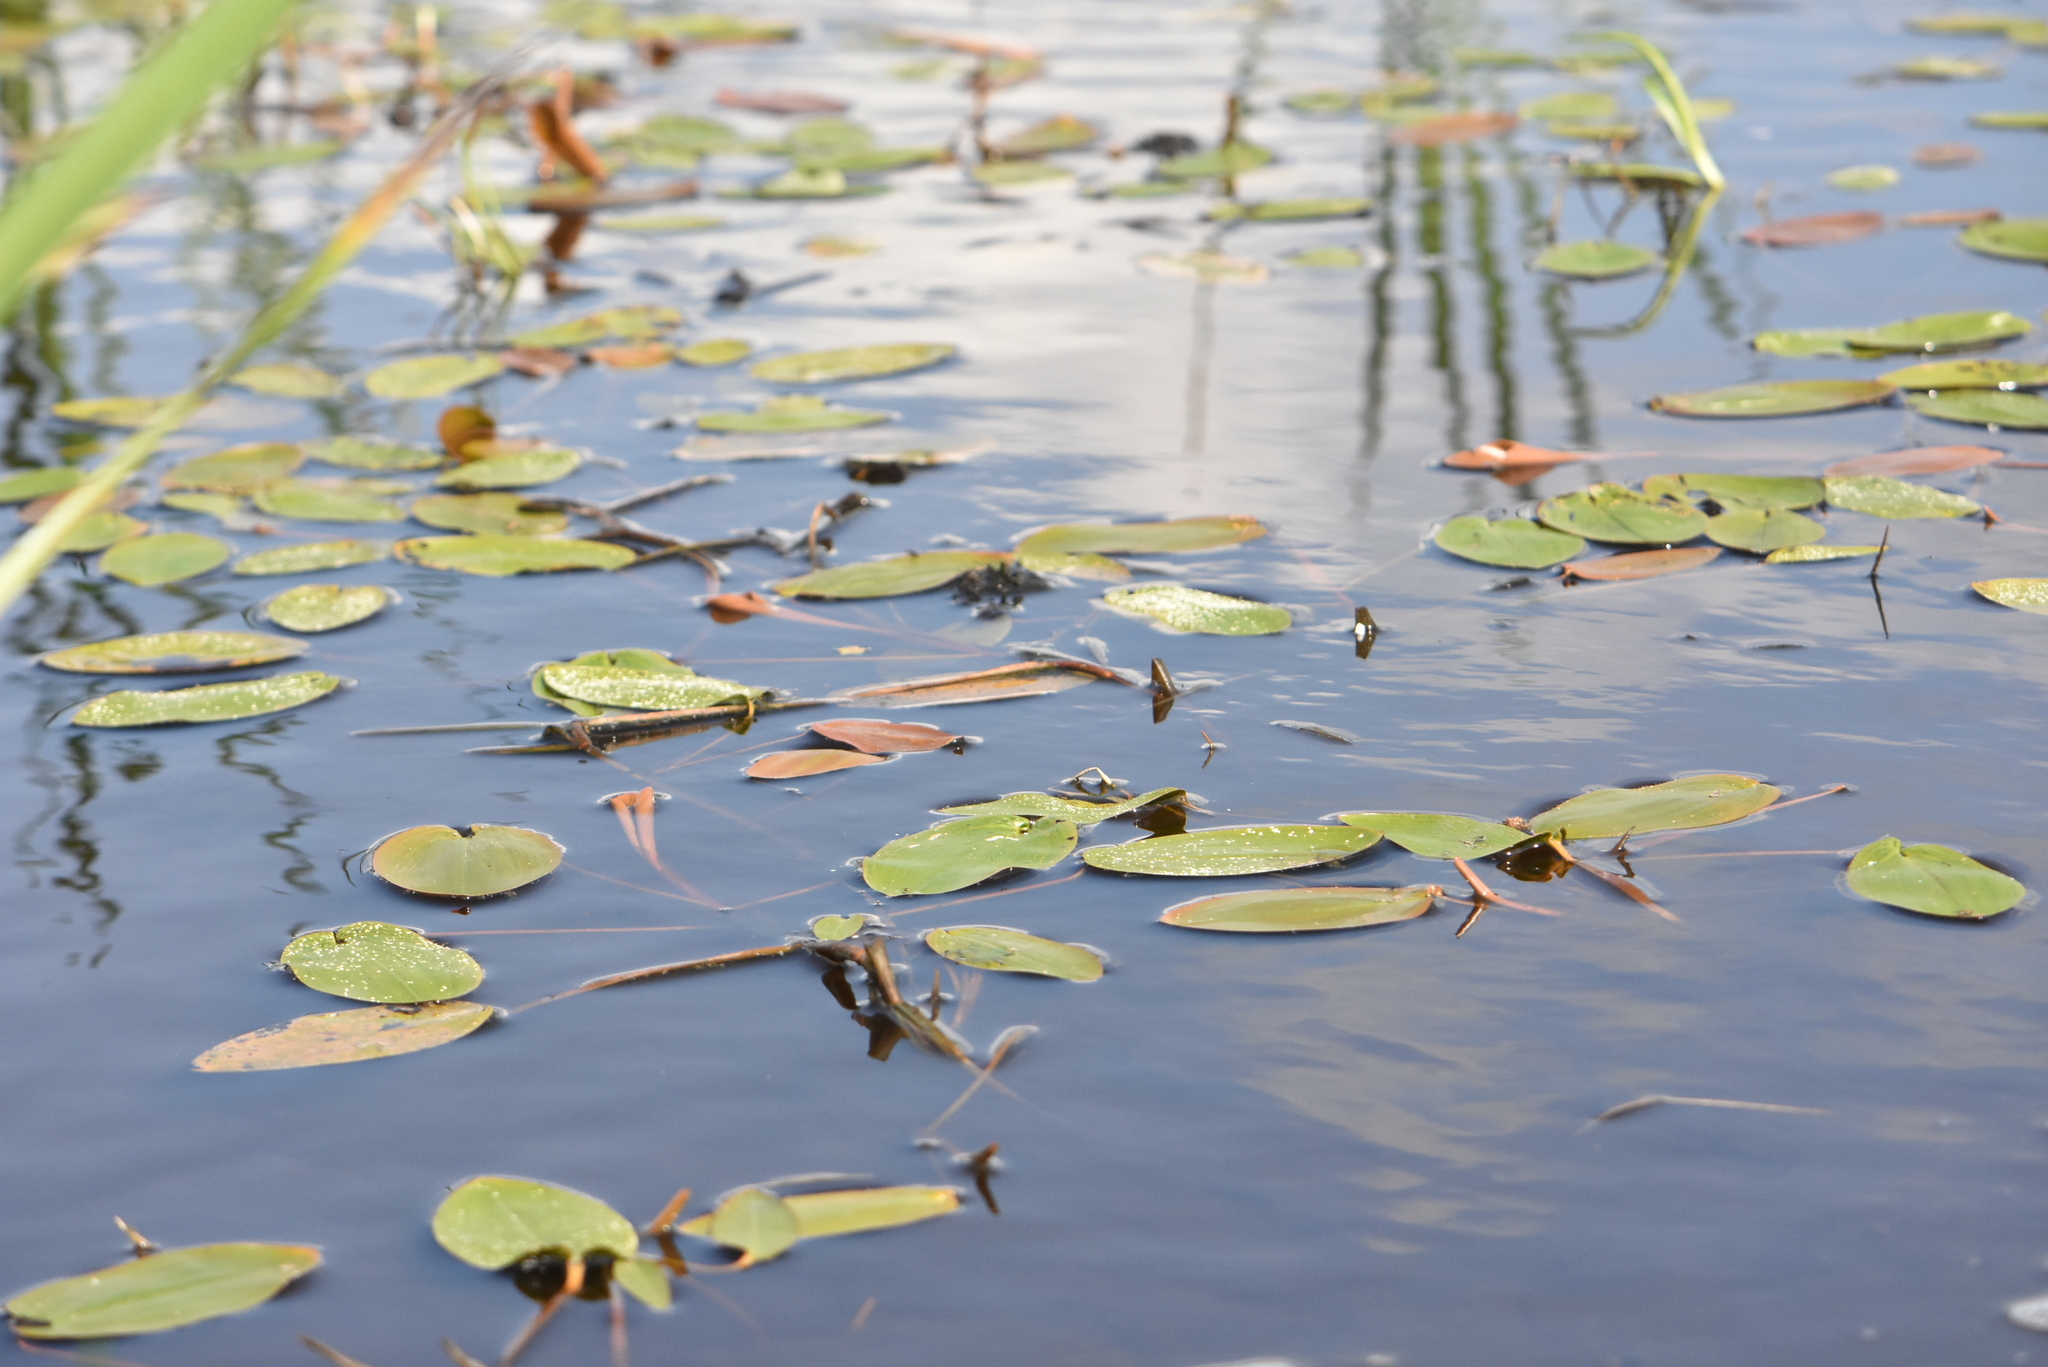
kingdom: Plantae
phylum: Tracheophyta
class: Liliopsida
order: Alismatales
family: Potamogetonaceae
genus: Potamogeton
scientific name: Potamogeton natans
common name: Broad-leaved pondweed
